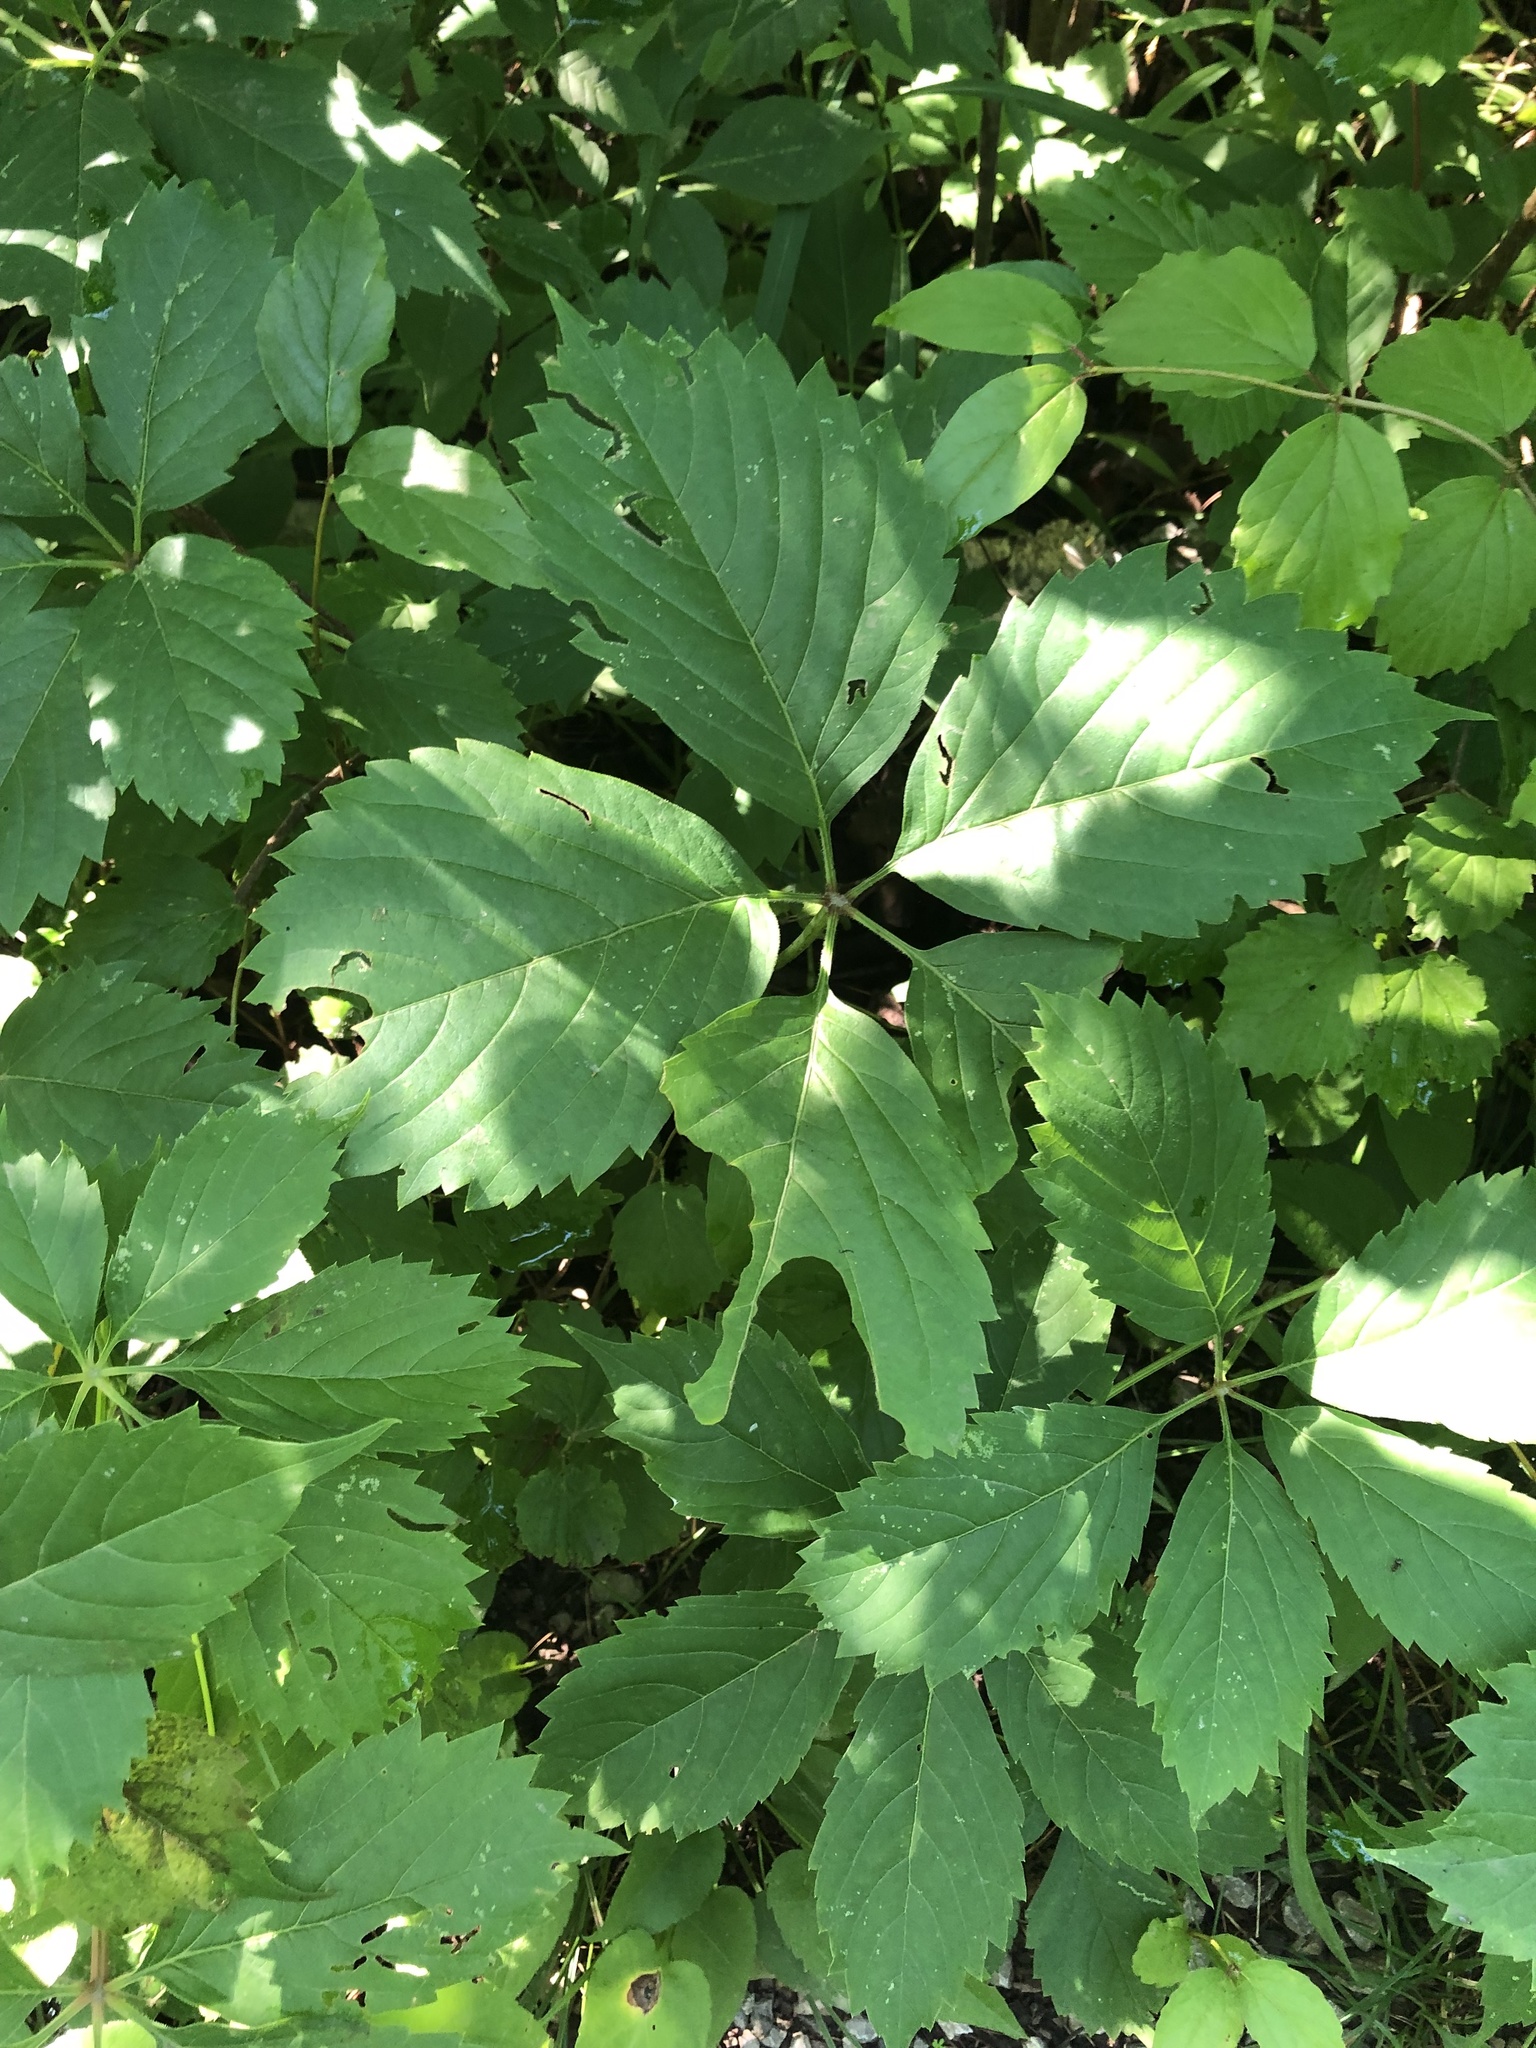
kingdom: Plantae
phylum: Tracheophyta
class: Magnoliopsida
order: Vitales
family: Vitaceae
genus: Parthenocissus
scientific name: Parthenocissus inserta
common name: False virginia-creeper
